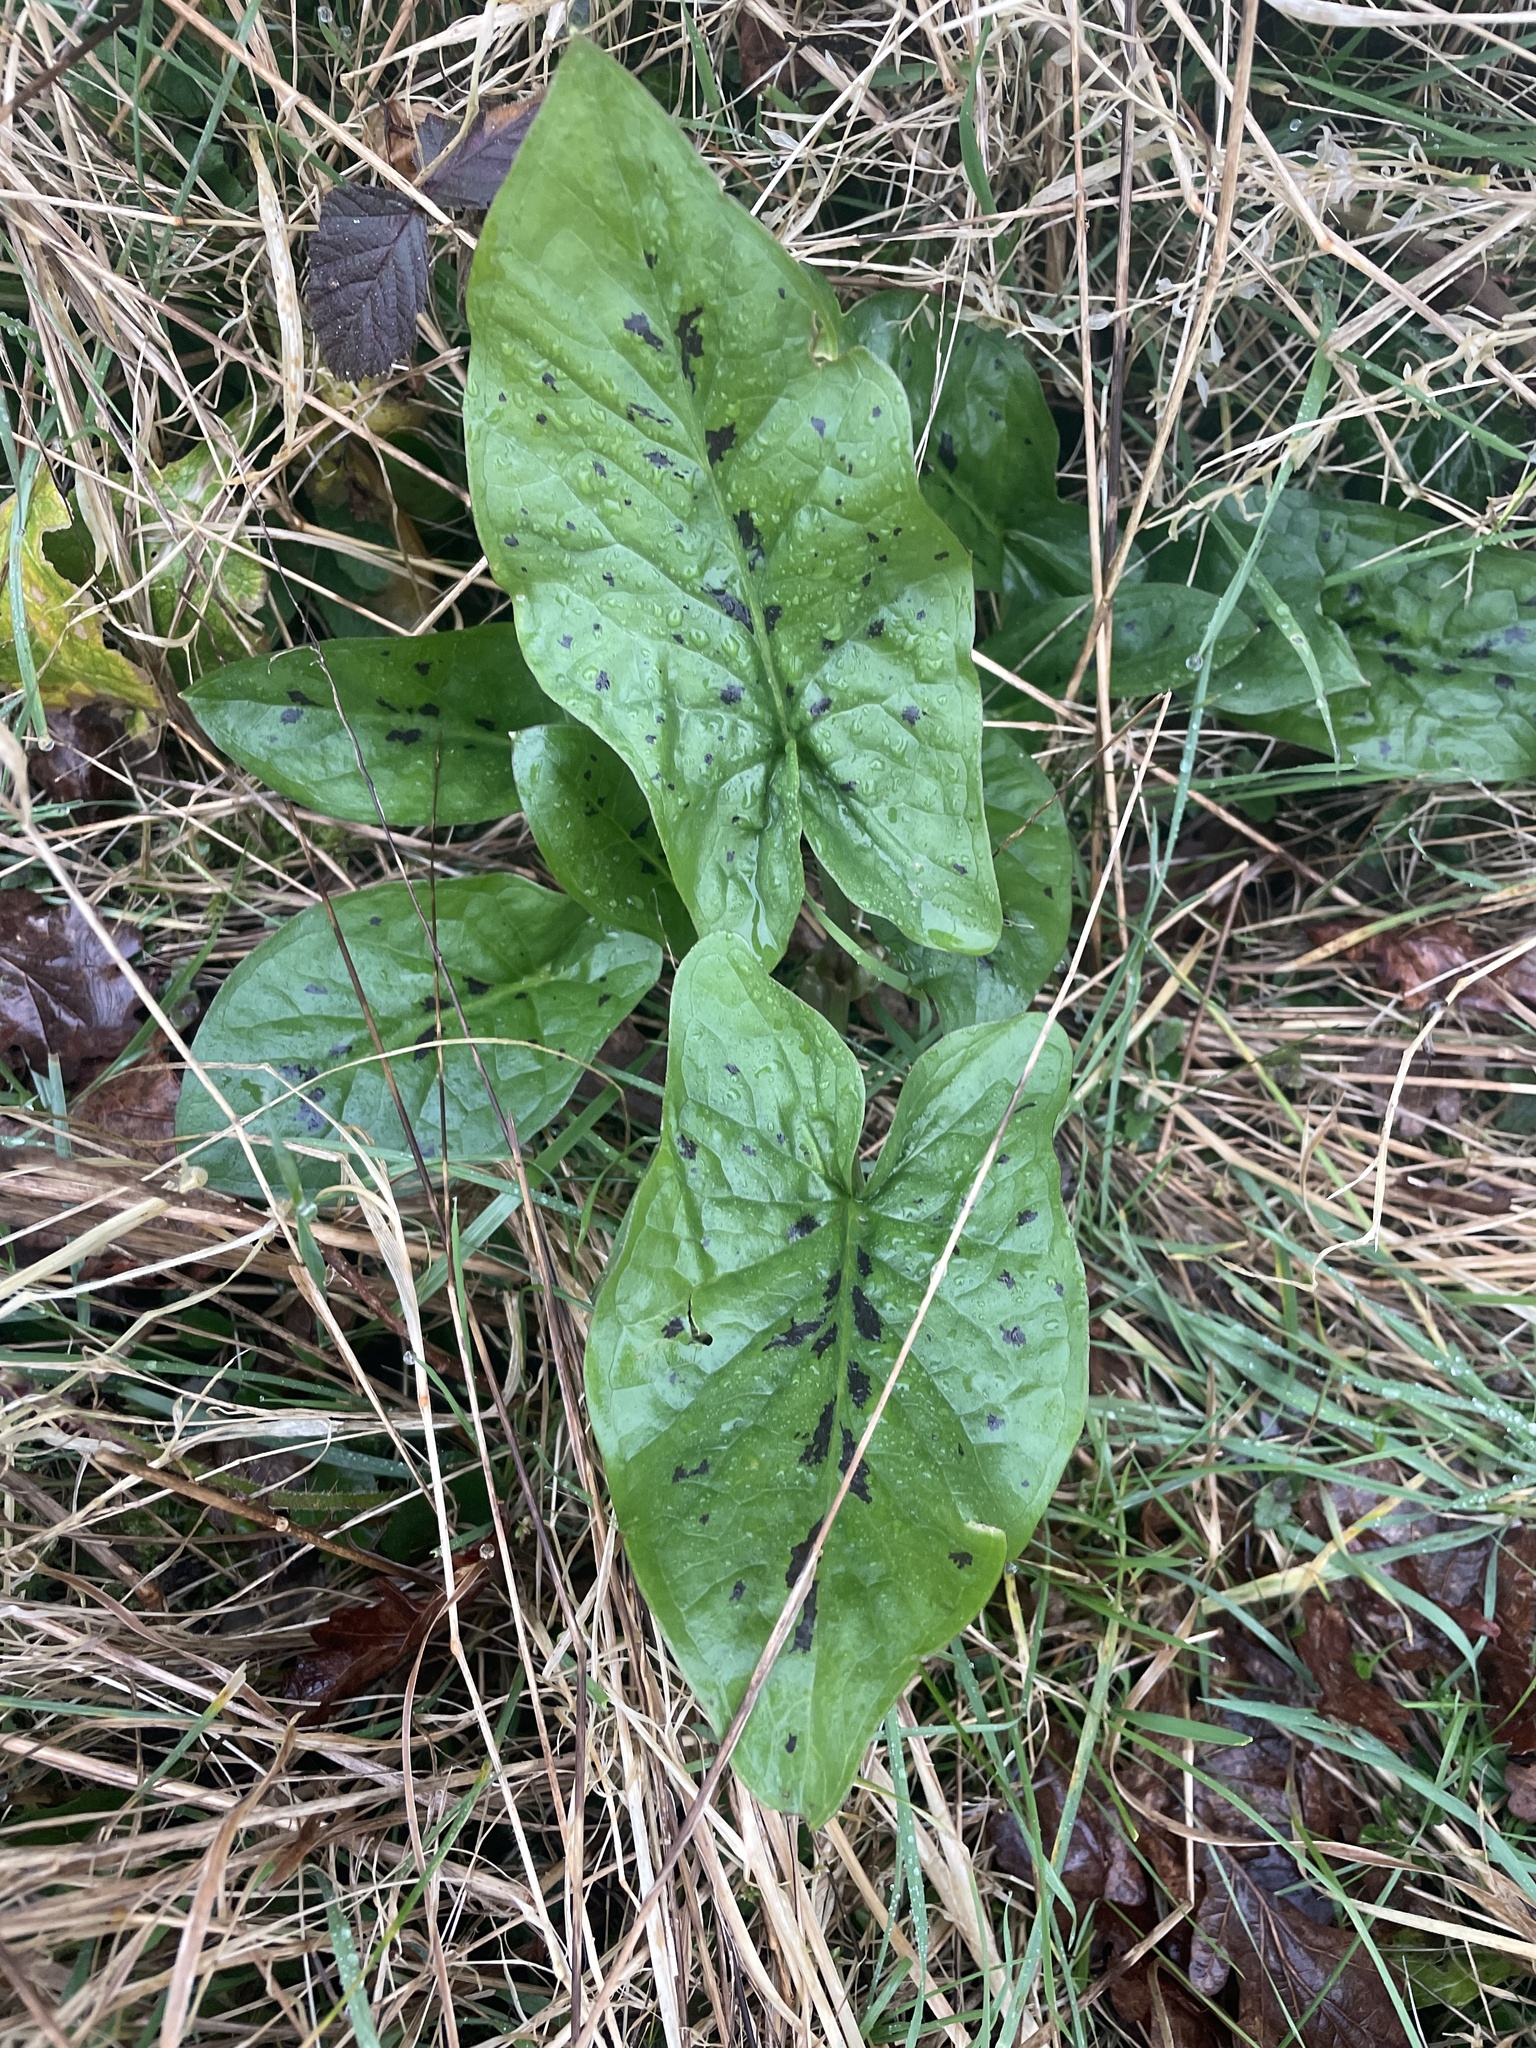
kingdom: Plantae
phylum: Tracheophyta
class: Liliopsida
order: Alismatales
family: Araceae
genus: Arum
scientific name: Arum maculatum
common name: Lords-and-ladies
